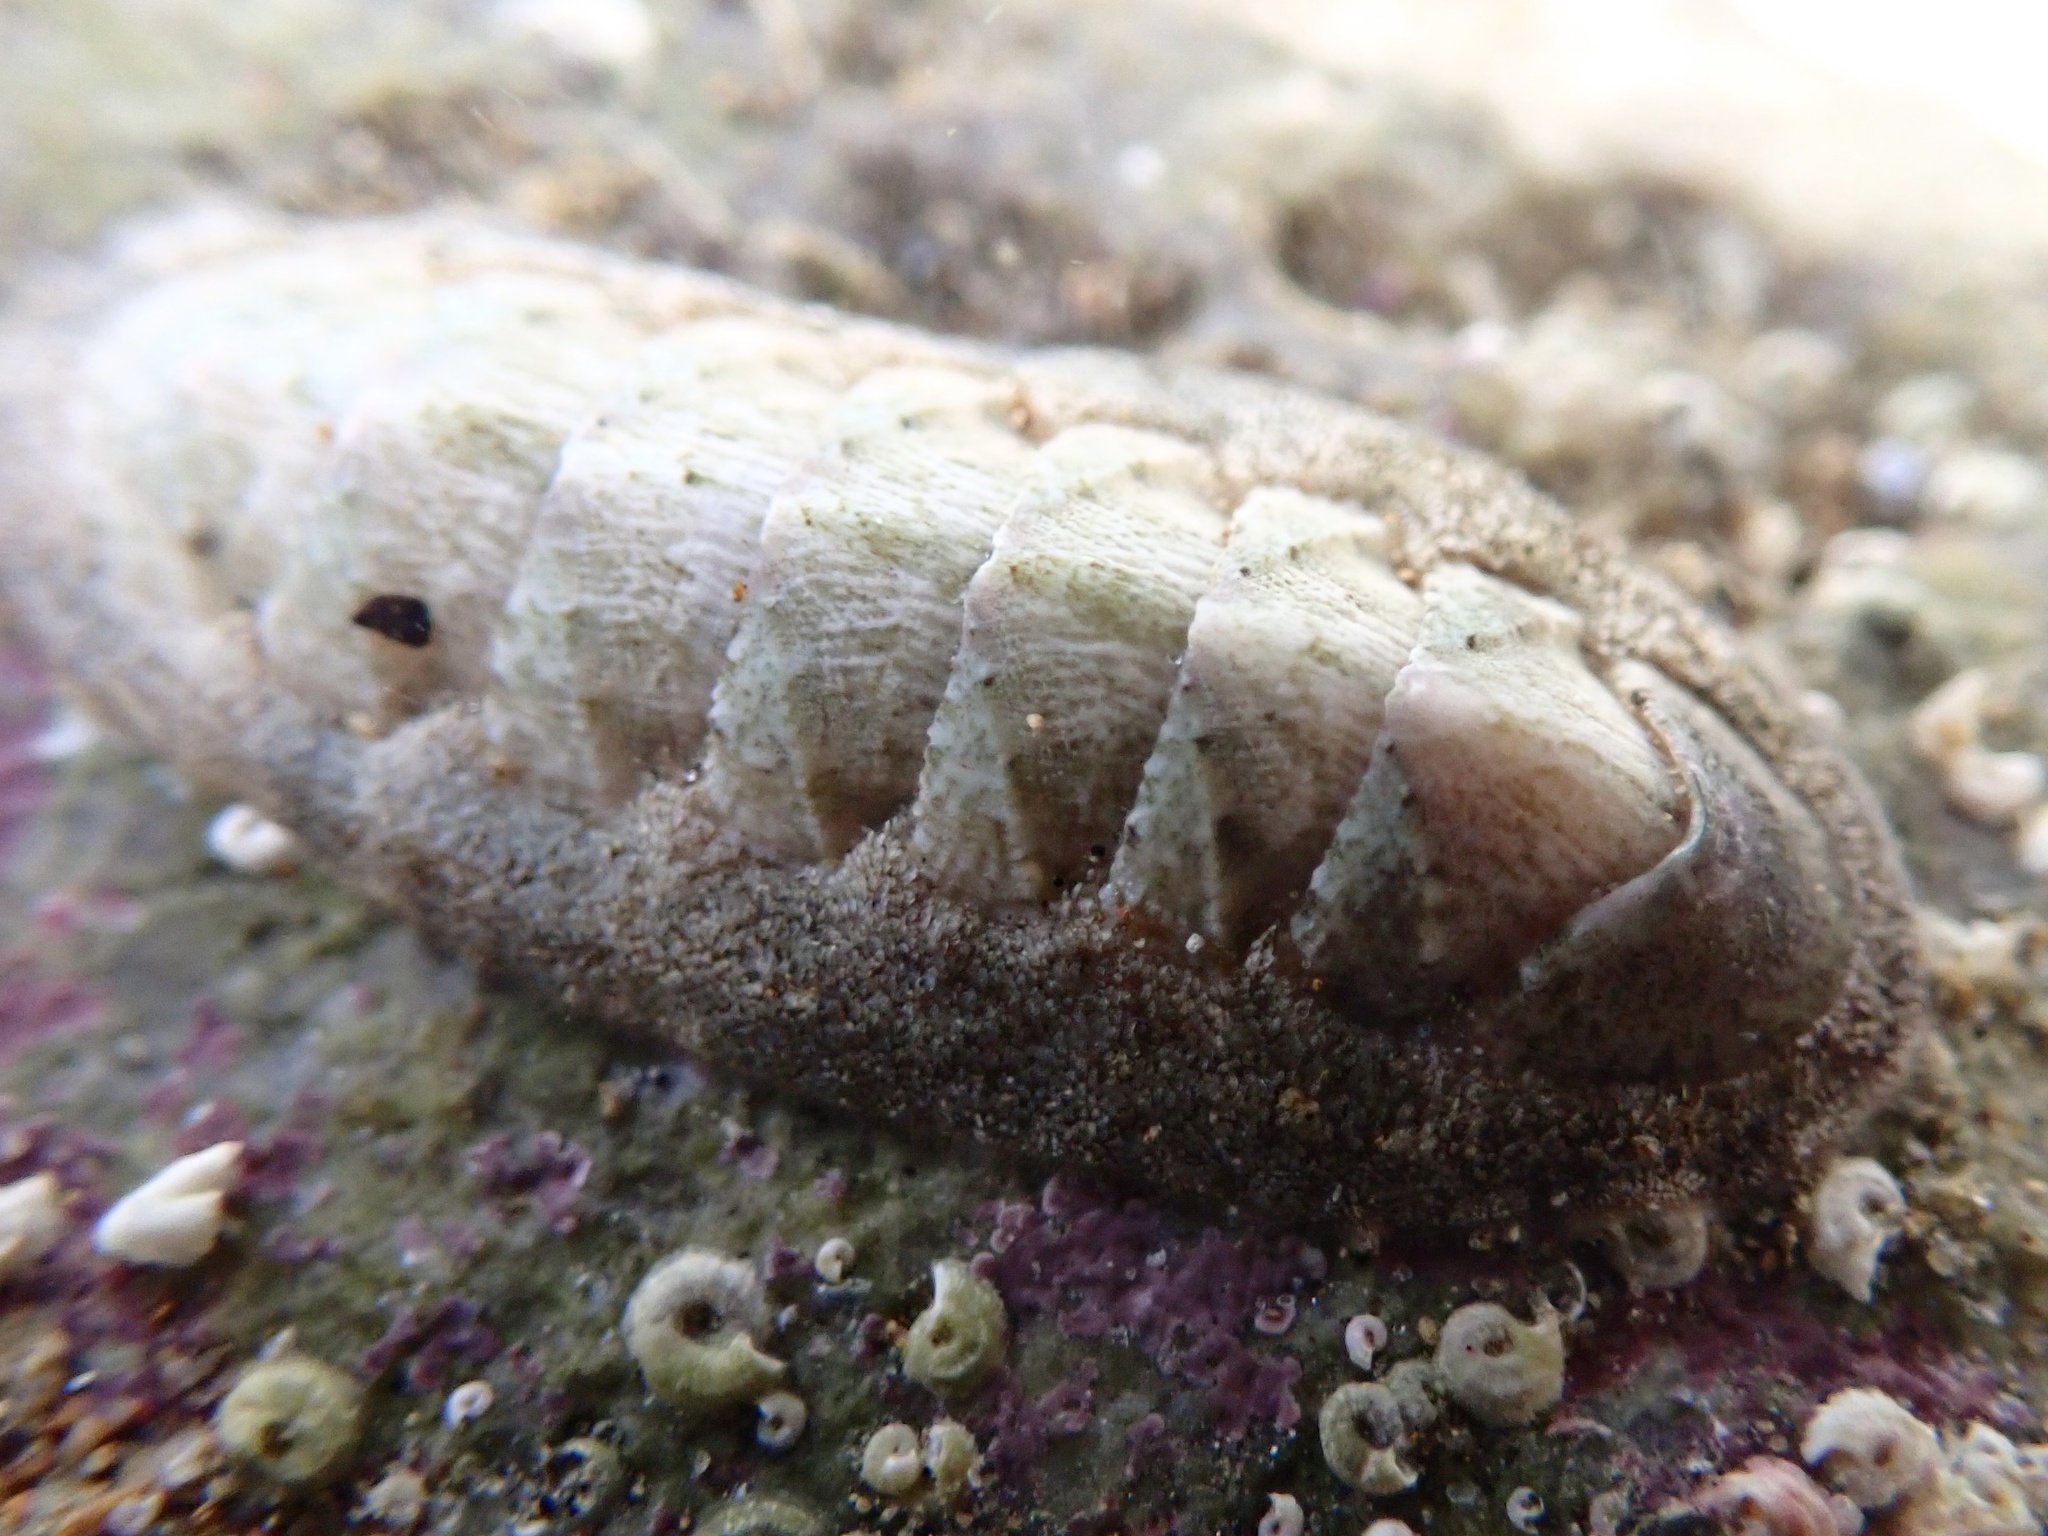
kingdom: Animalia
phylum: Mollusca
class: Polyplacophora
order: Chitonida
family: Ischnochitonidae
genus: Stenoplax
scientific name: Stenoplax heathiana
